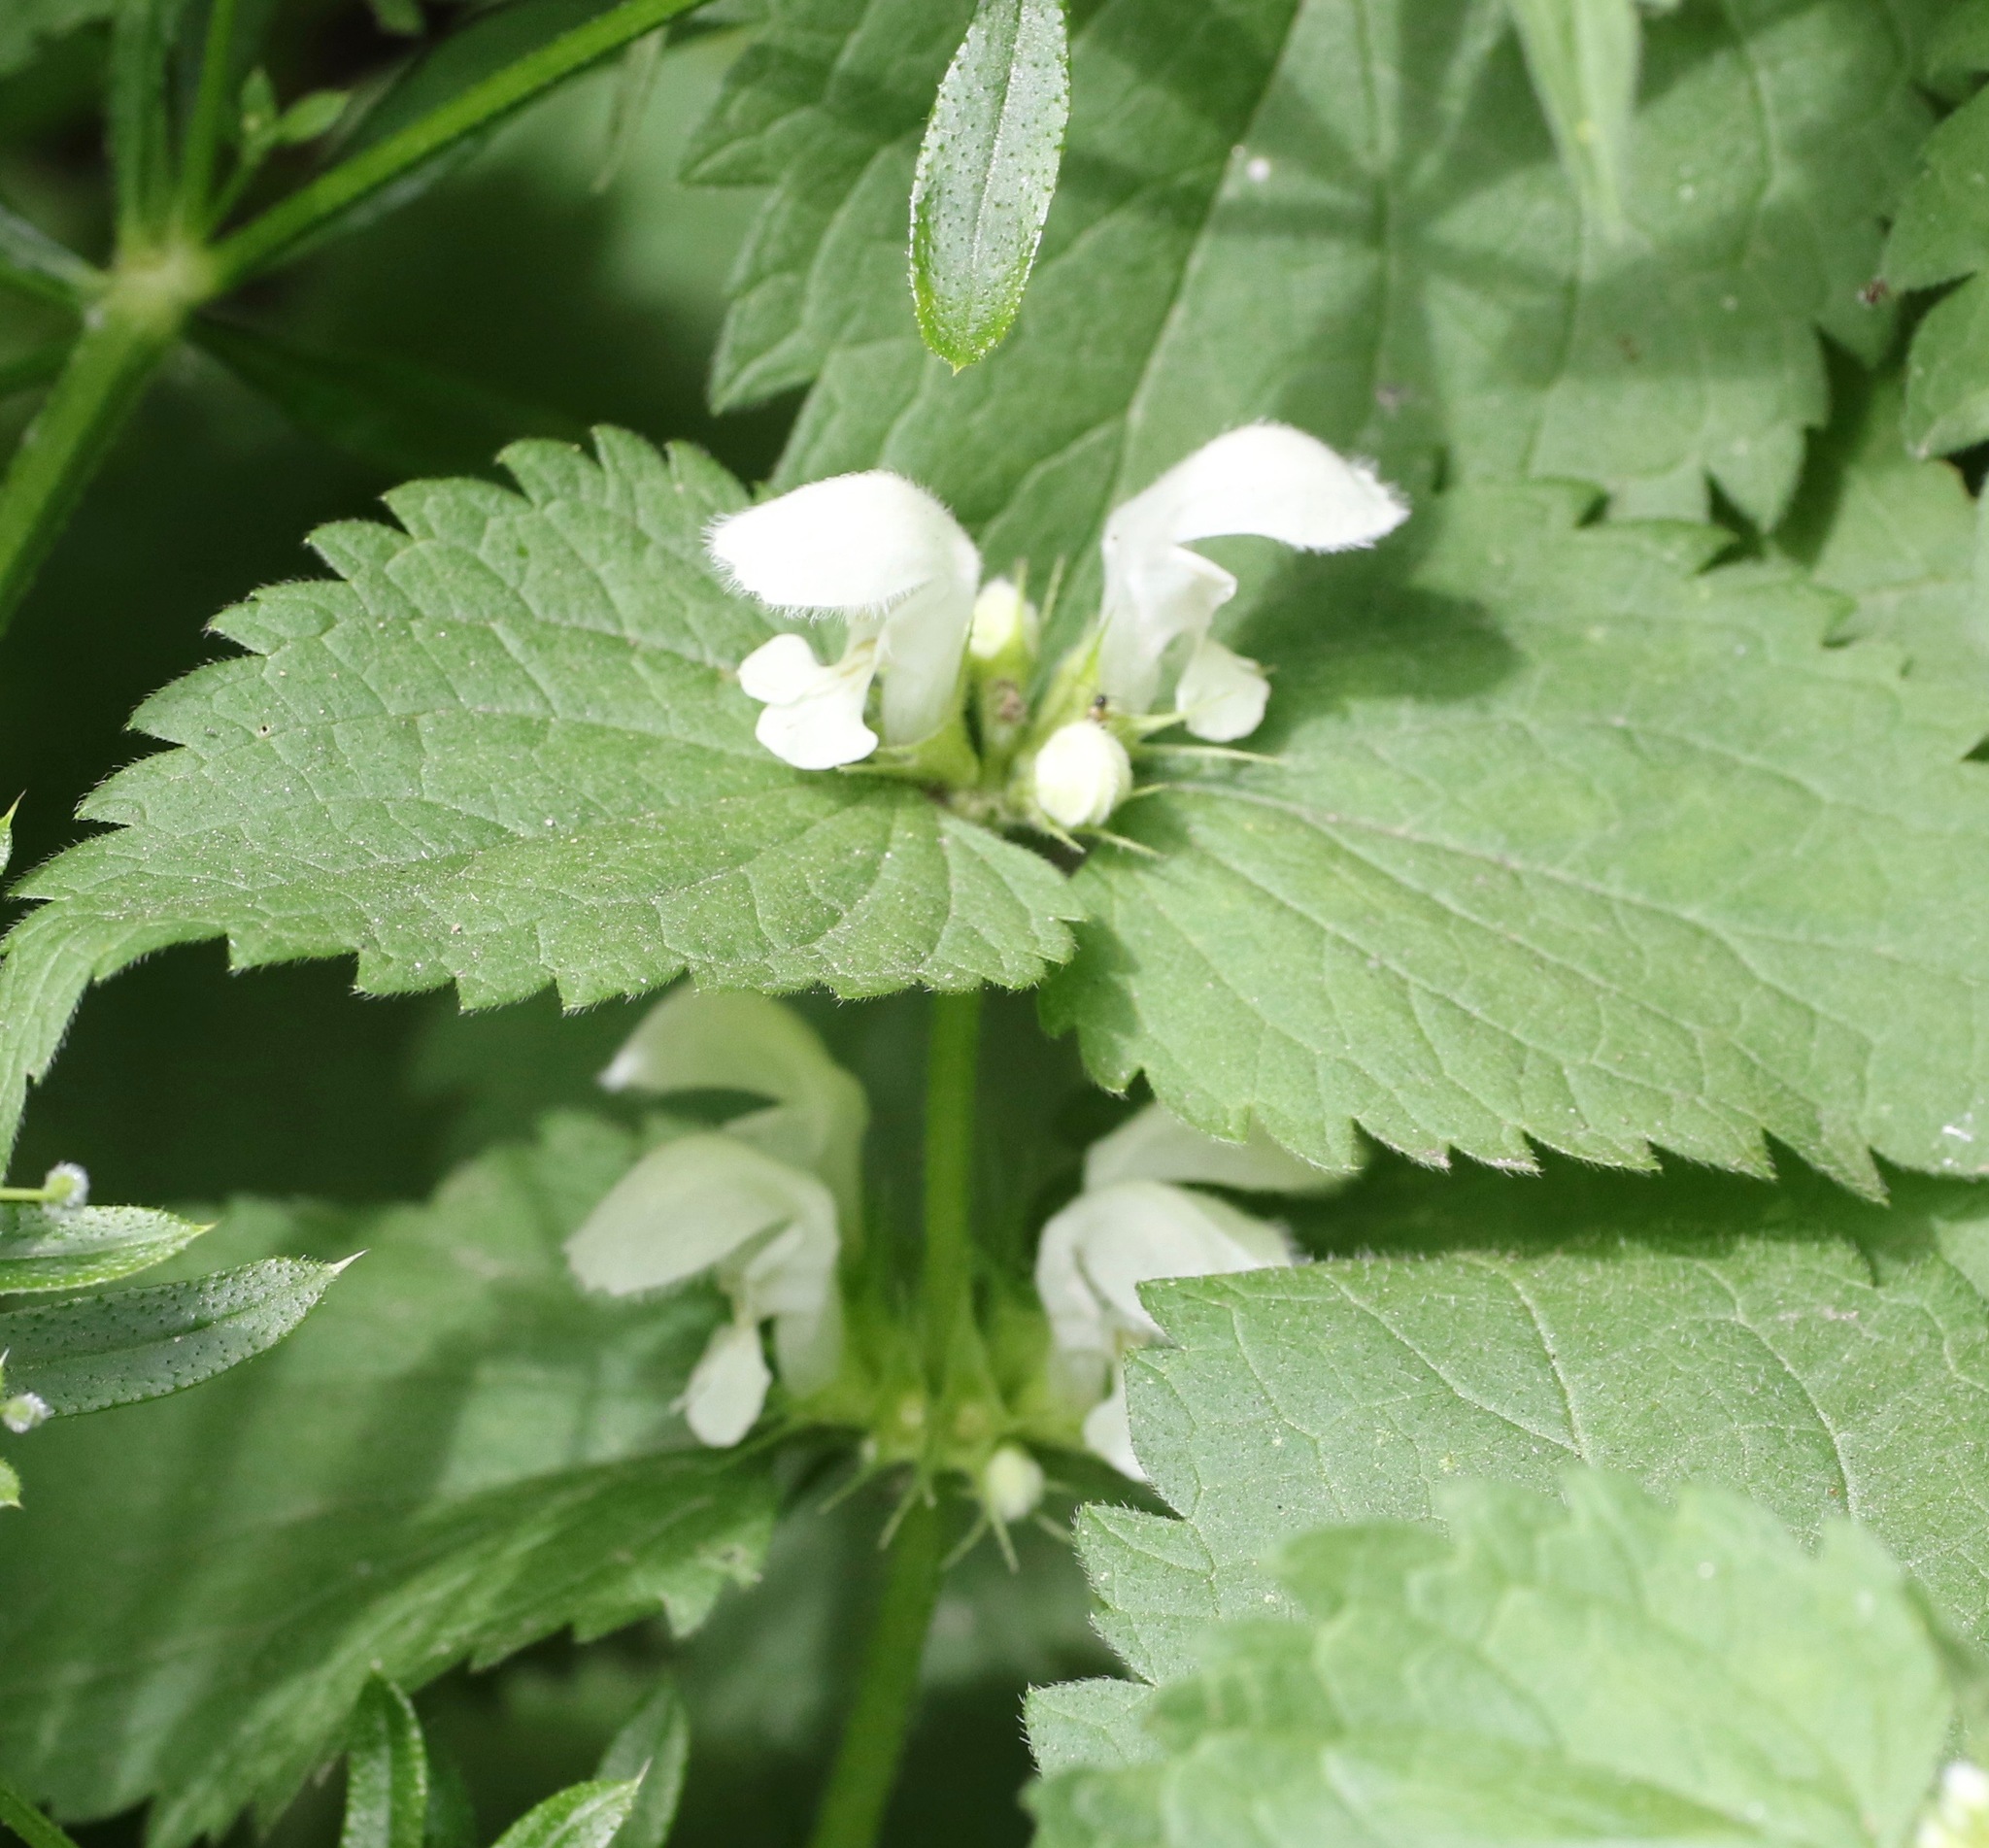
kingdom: Plantae
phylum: Tracheophyta
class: Magnoliopsida
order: Lamiales
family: Lamiaceae
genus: Lamium
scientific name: Lamium album
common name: White dead-nettle
